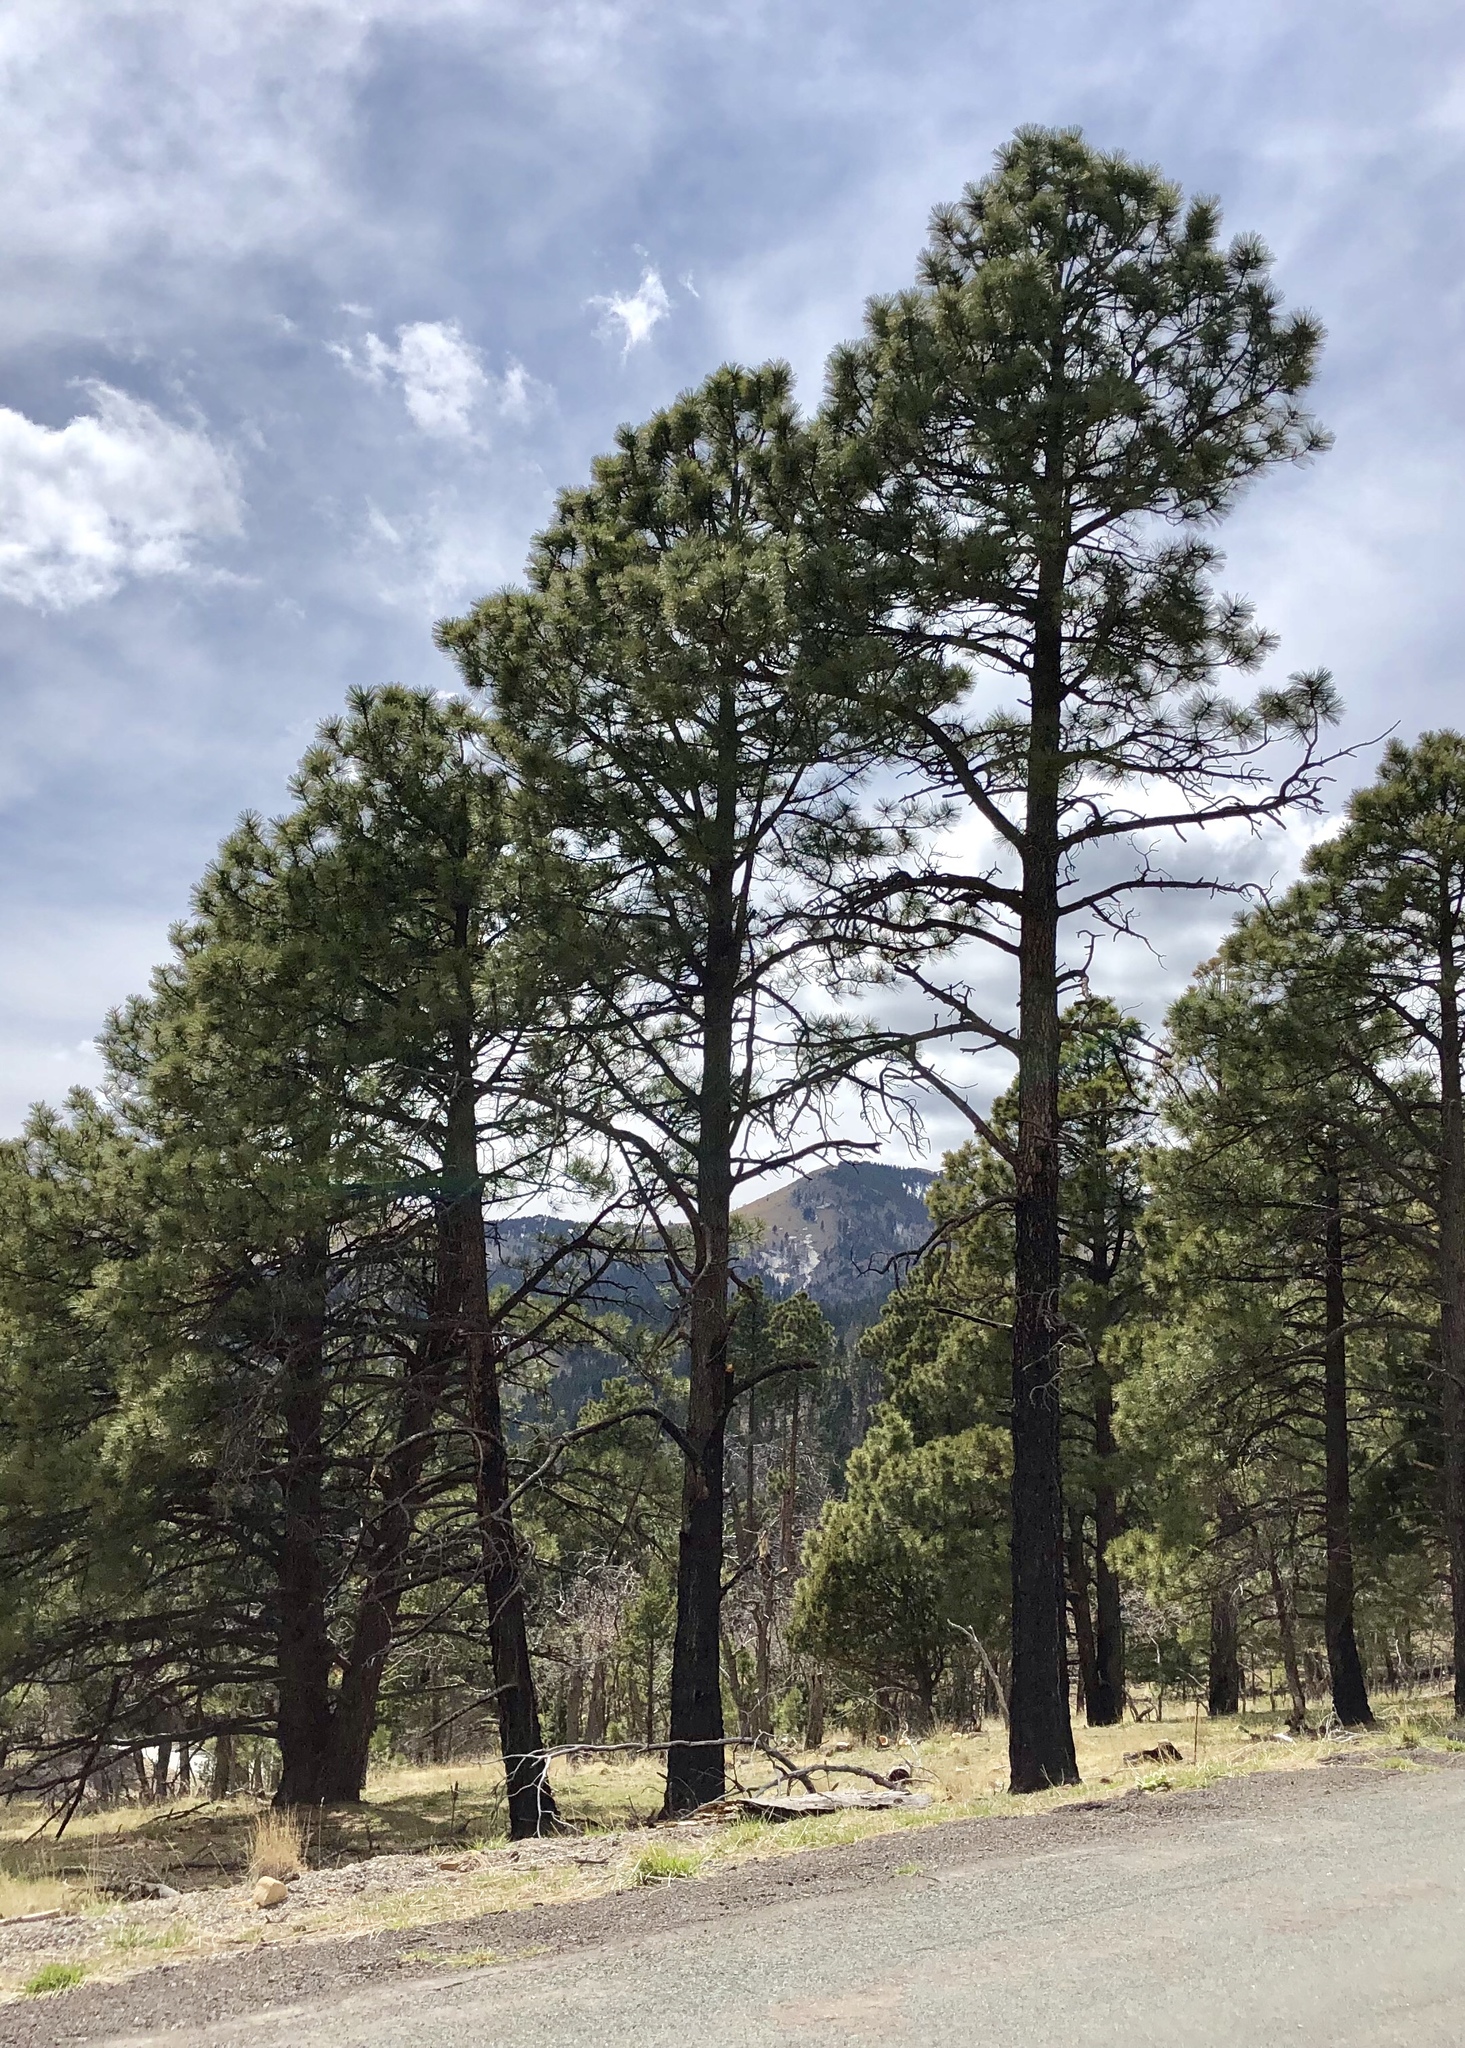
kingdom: Plantae
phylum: Tracheophyta
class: Pinopsida
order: Pinales
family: Pinaceae
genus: Pinus
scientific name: Pinus ponderosa
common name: Western yellow-pine
